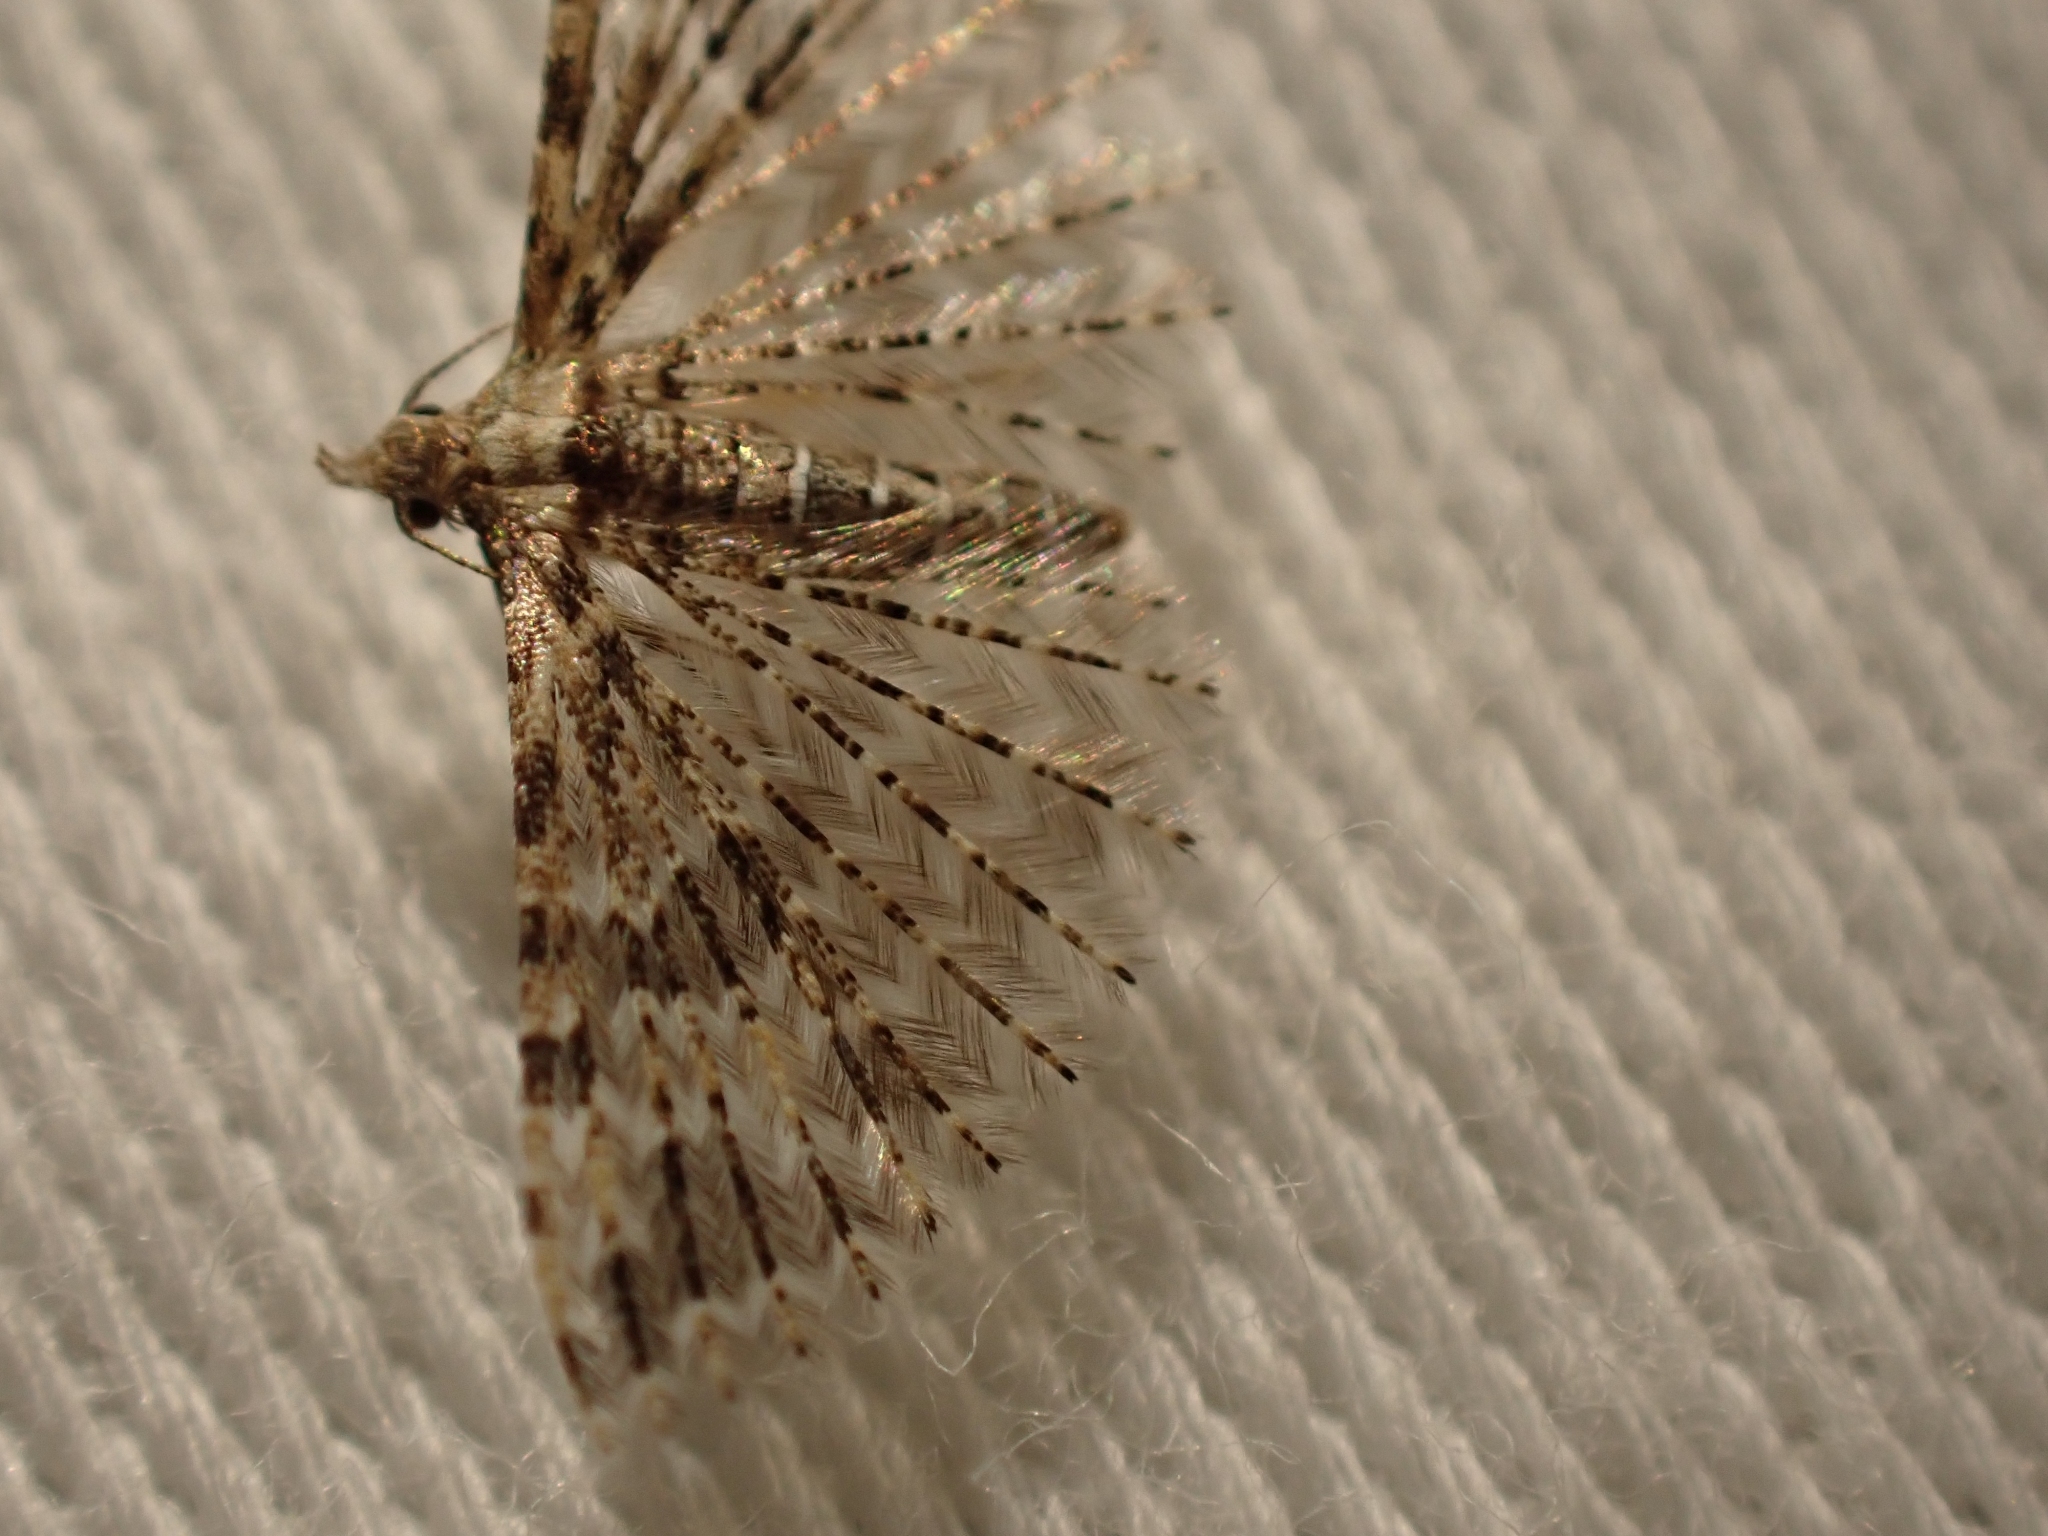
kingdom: Animalia
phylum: Arthropoda
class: Insecta
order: Lepidoptera
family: Alucitidae
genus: Alucita
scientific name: Alucita montana
